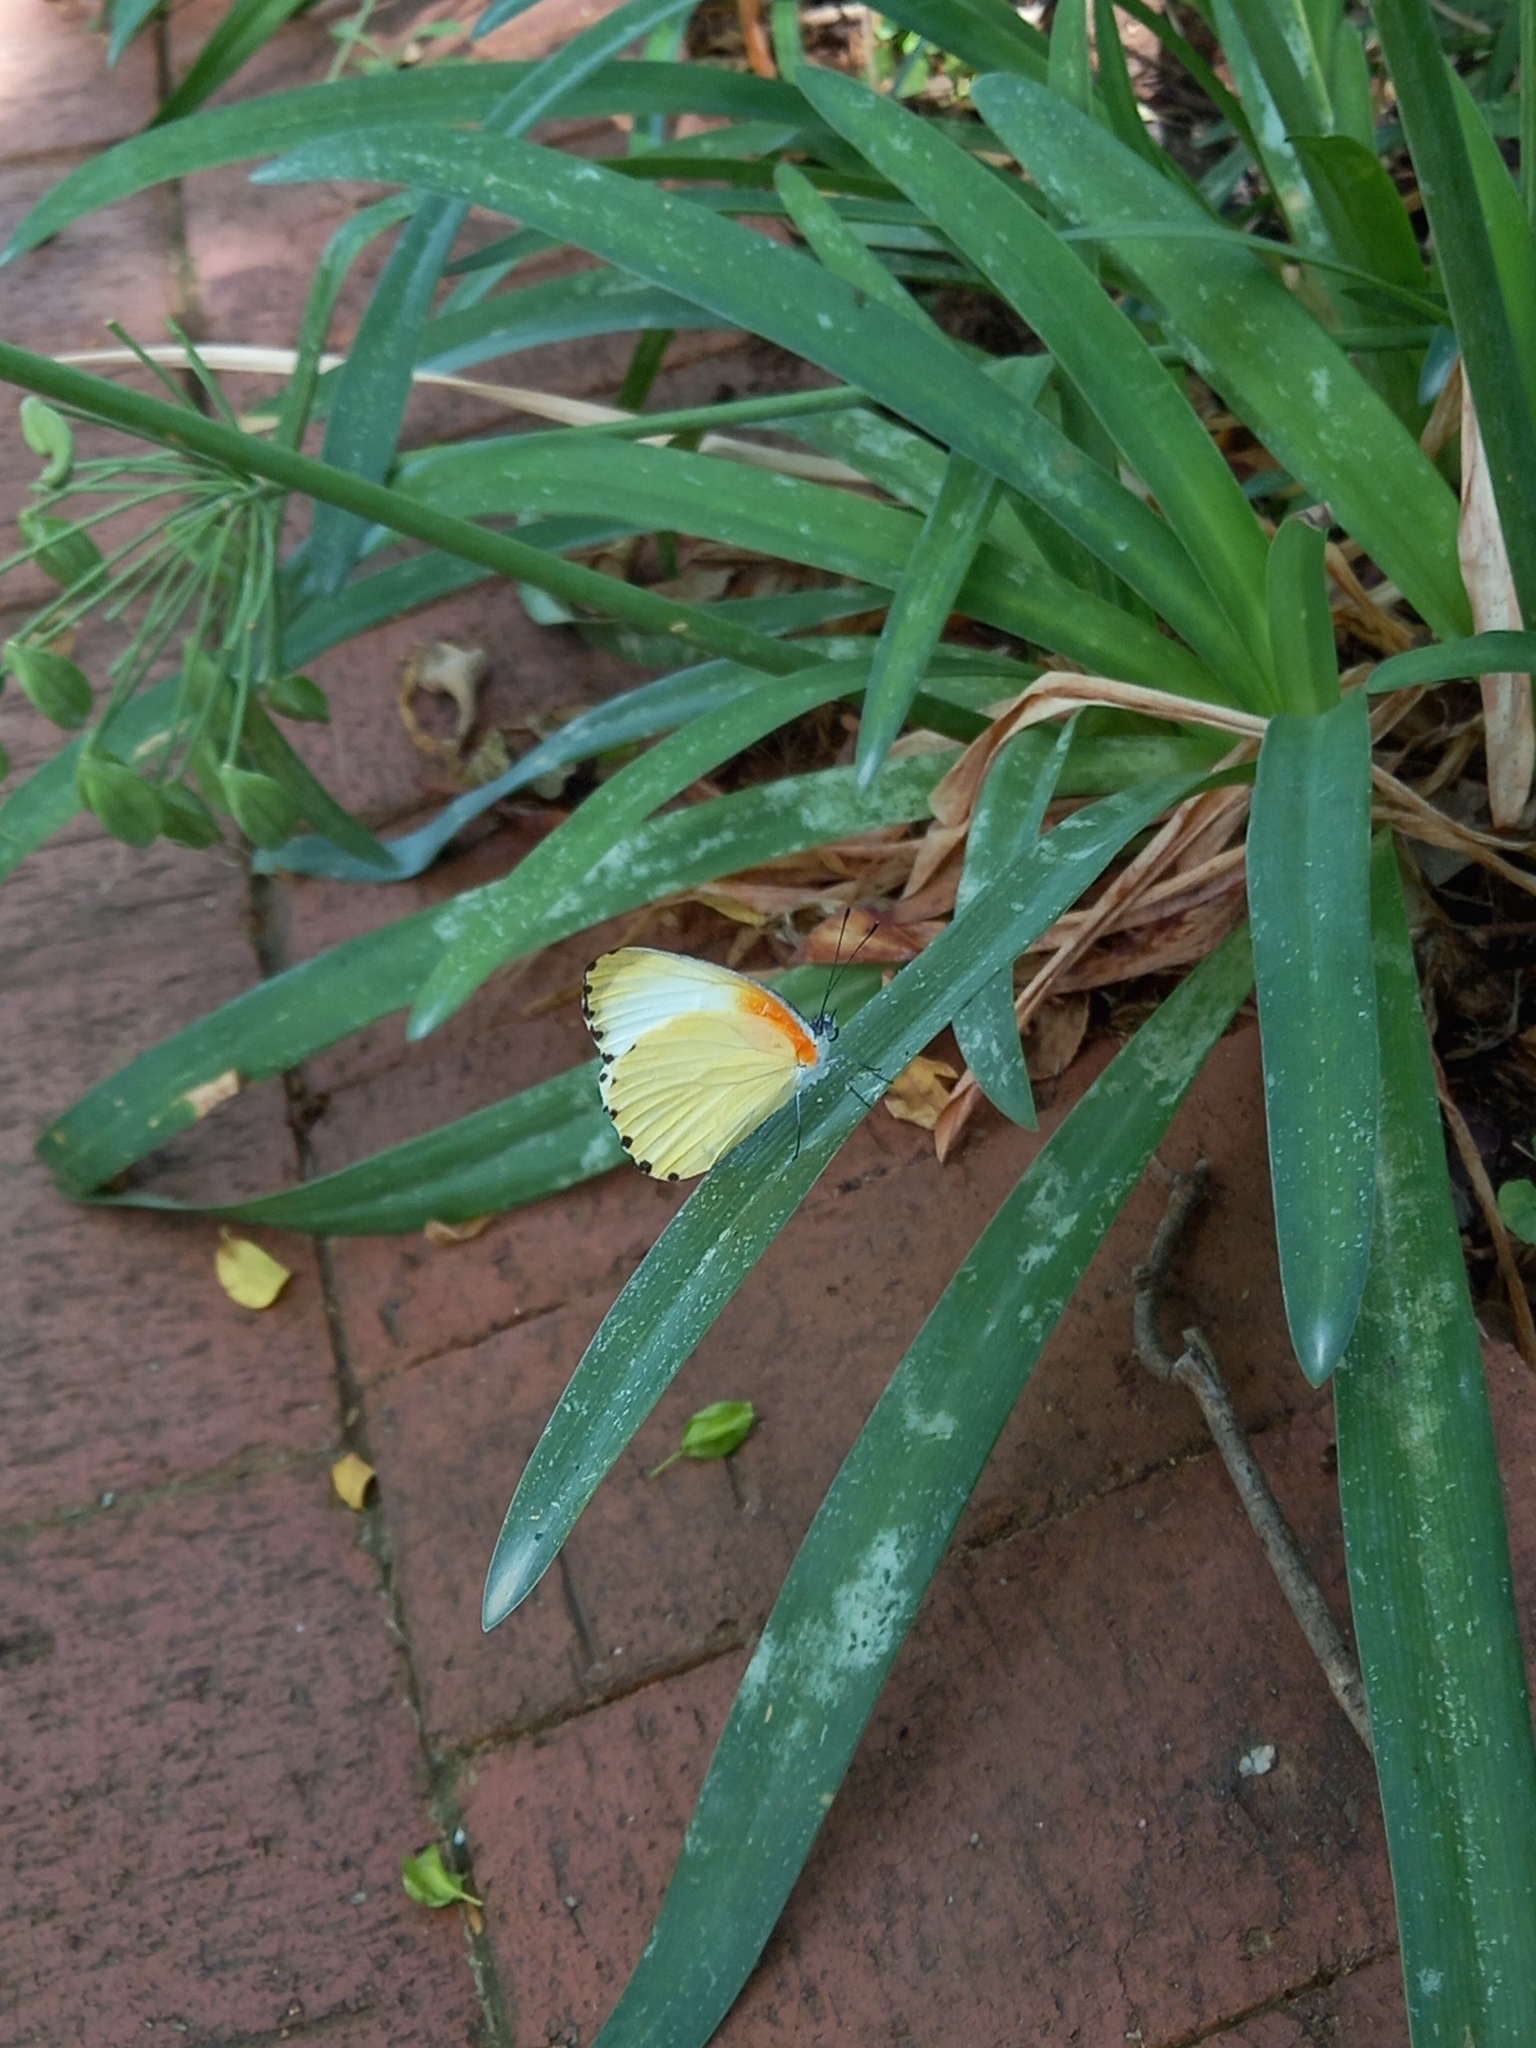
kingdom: Animalia
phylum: Arthropoda
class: Insecta
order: Lepidoptera
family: Pieridae
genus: Mylothris
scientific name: Mylothris agathina
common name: Eastern dotted border
